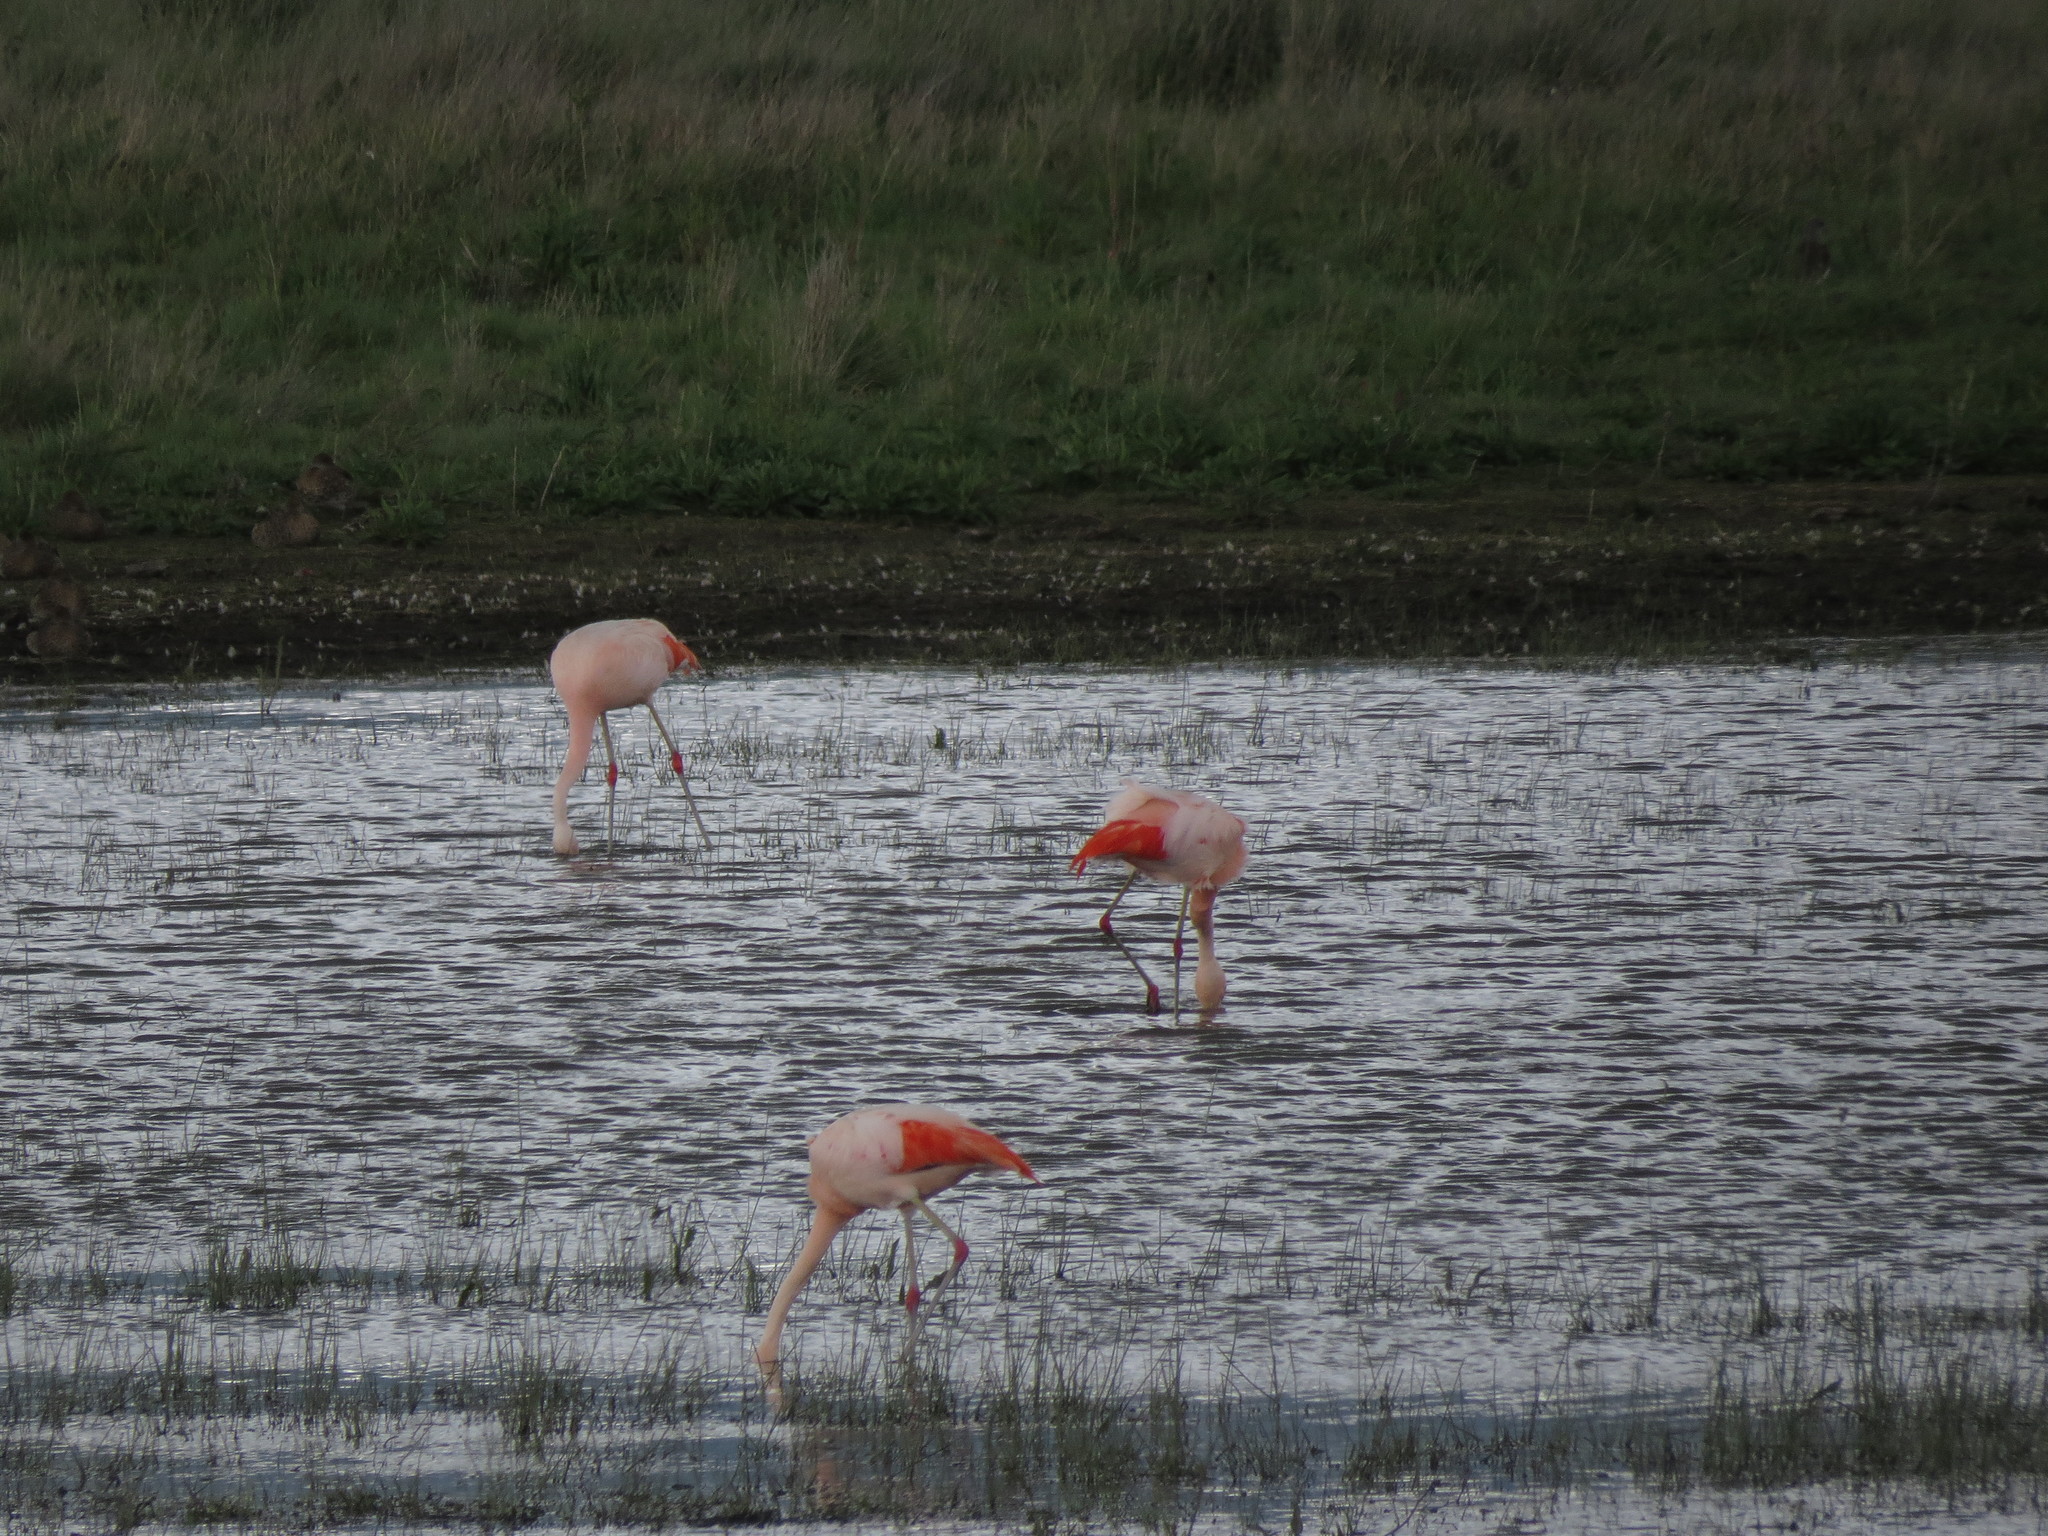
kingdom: Animalia
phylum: Chordata
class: Aves
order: Phoenicopteriformes
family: Phoenicopteridae
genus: Phoenicopterus
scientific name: Phoenicopterus chilensis
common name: Chilean flamingo
